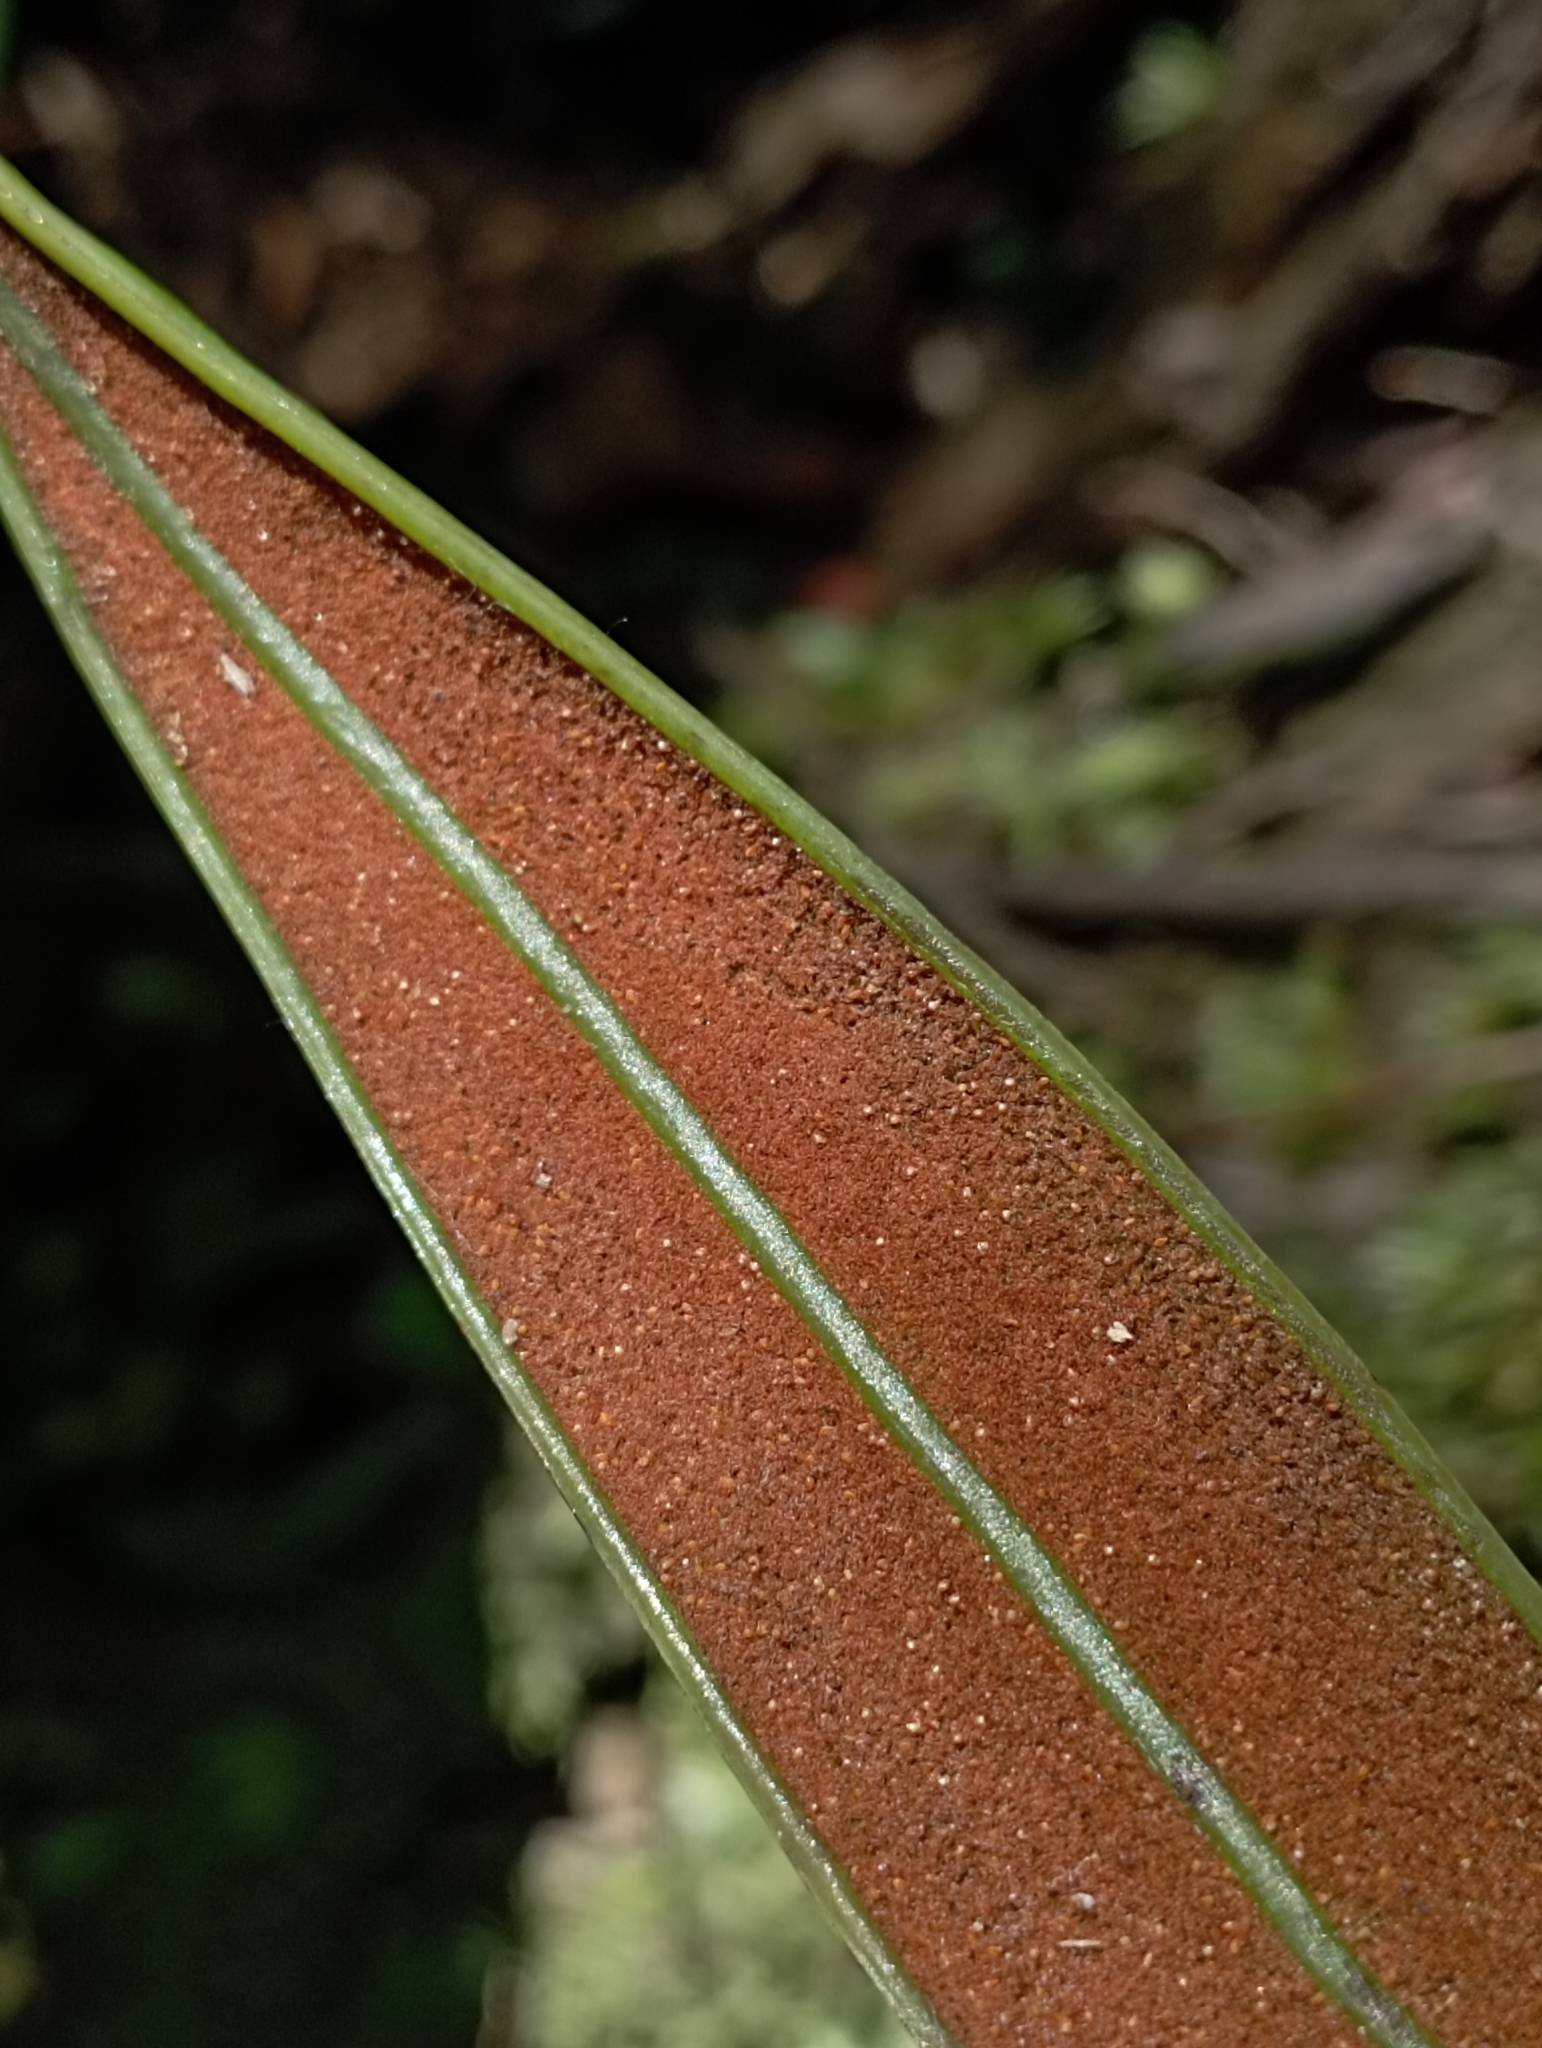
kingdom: Plantae
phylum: Tracheophyta
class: Polypodiopsida
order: Gleicheniales
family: Dipteridaceae
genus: Cheiropleuria
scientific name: Cheiropleuria integrifolia
